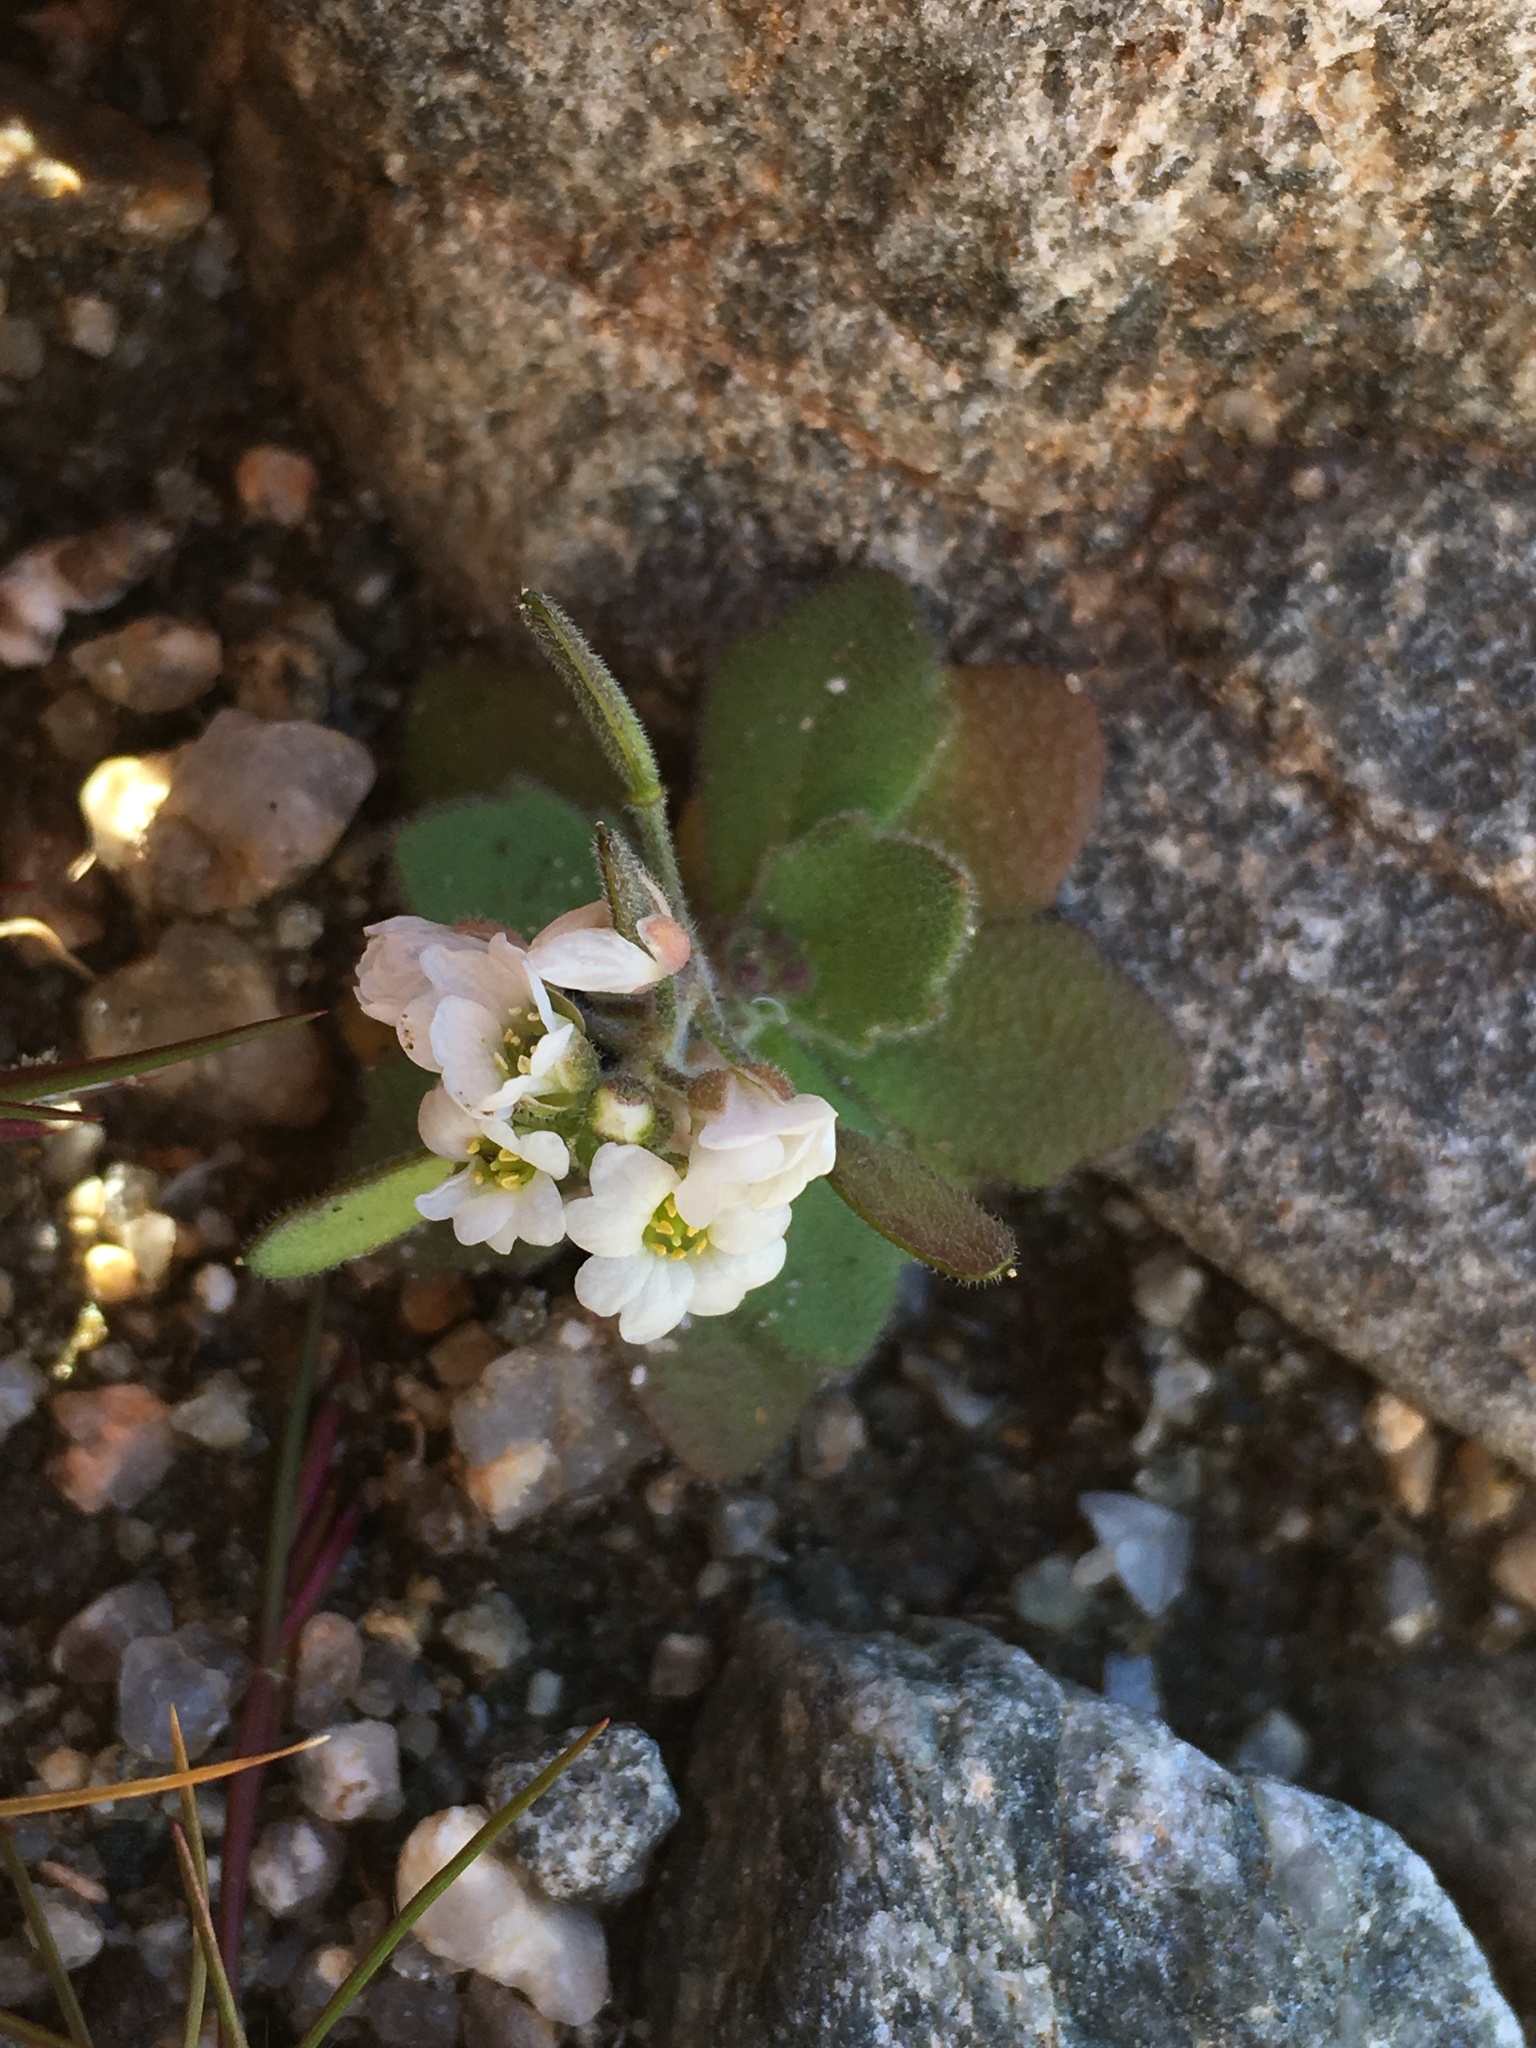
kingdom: Plantae
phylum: Tracheophyta
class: Magnoliopsida
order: Brassicales
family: Brassicaceae
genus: Tomostima
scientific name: Tomostima cuneifolia
